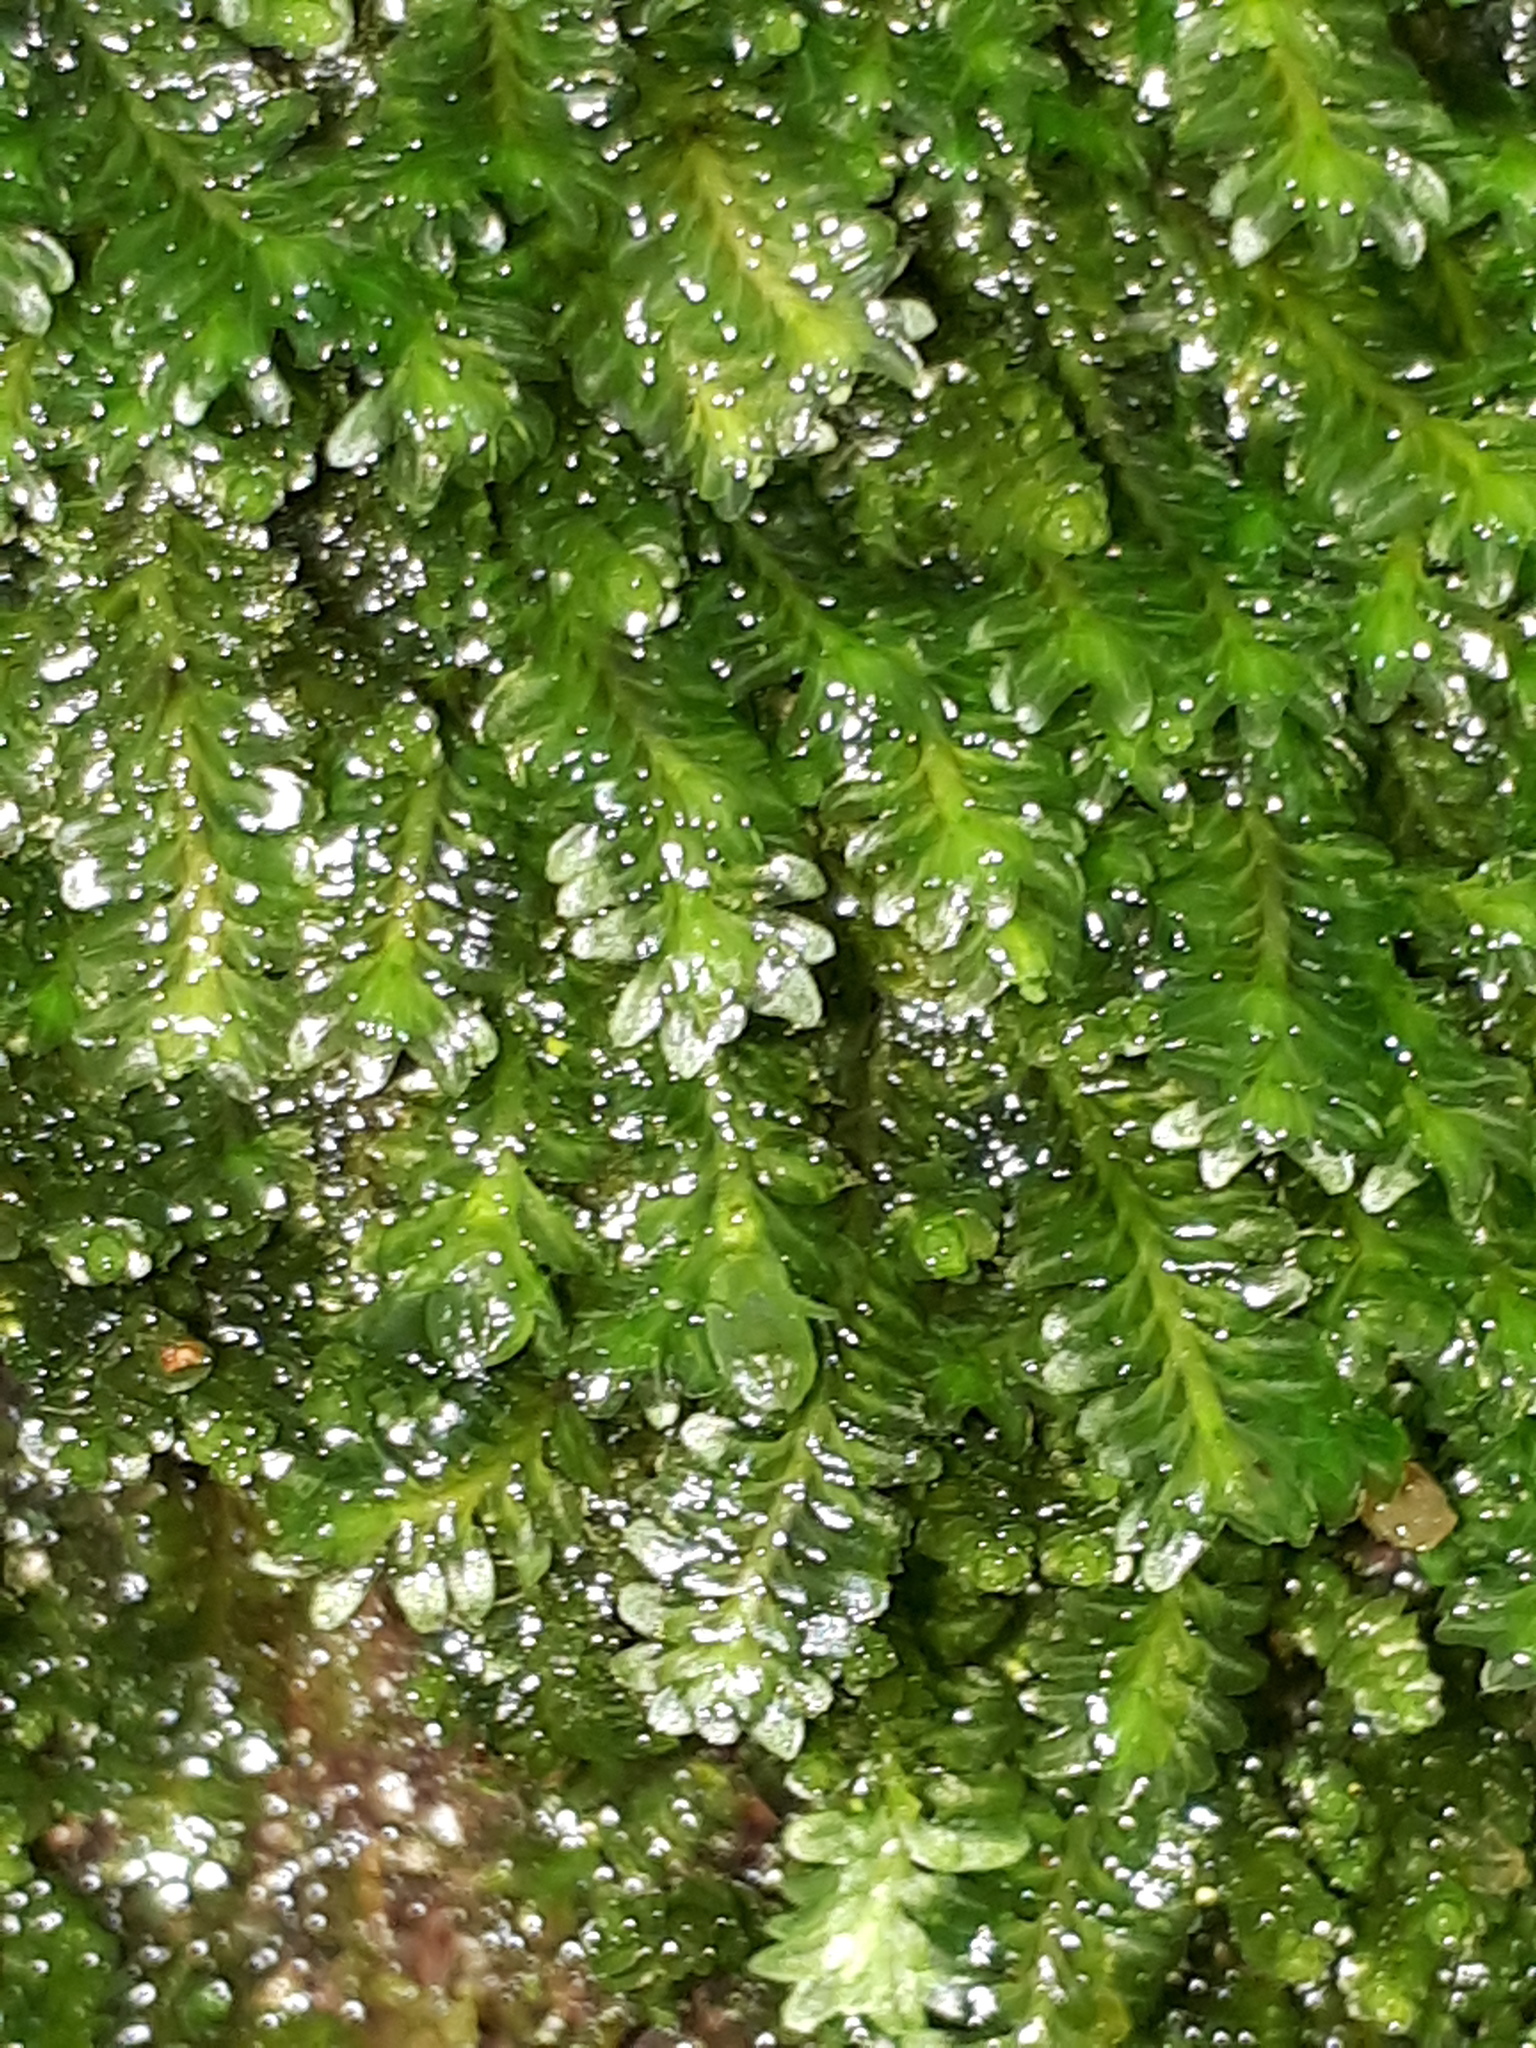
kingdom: Plantae
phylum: Marchantiophyta
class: Jungermanniopsida
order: Jungermanniales
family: Scapaniaceae
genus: Diplophyllum
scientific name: Diplophyllum albicans
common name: White earwort
